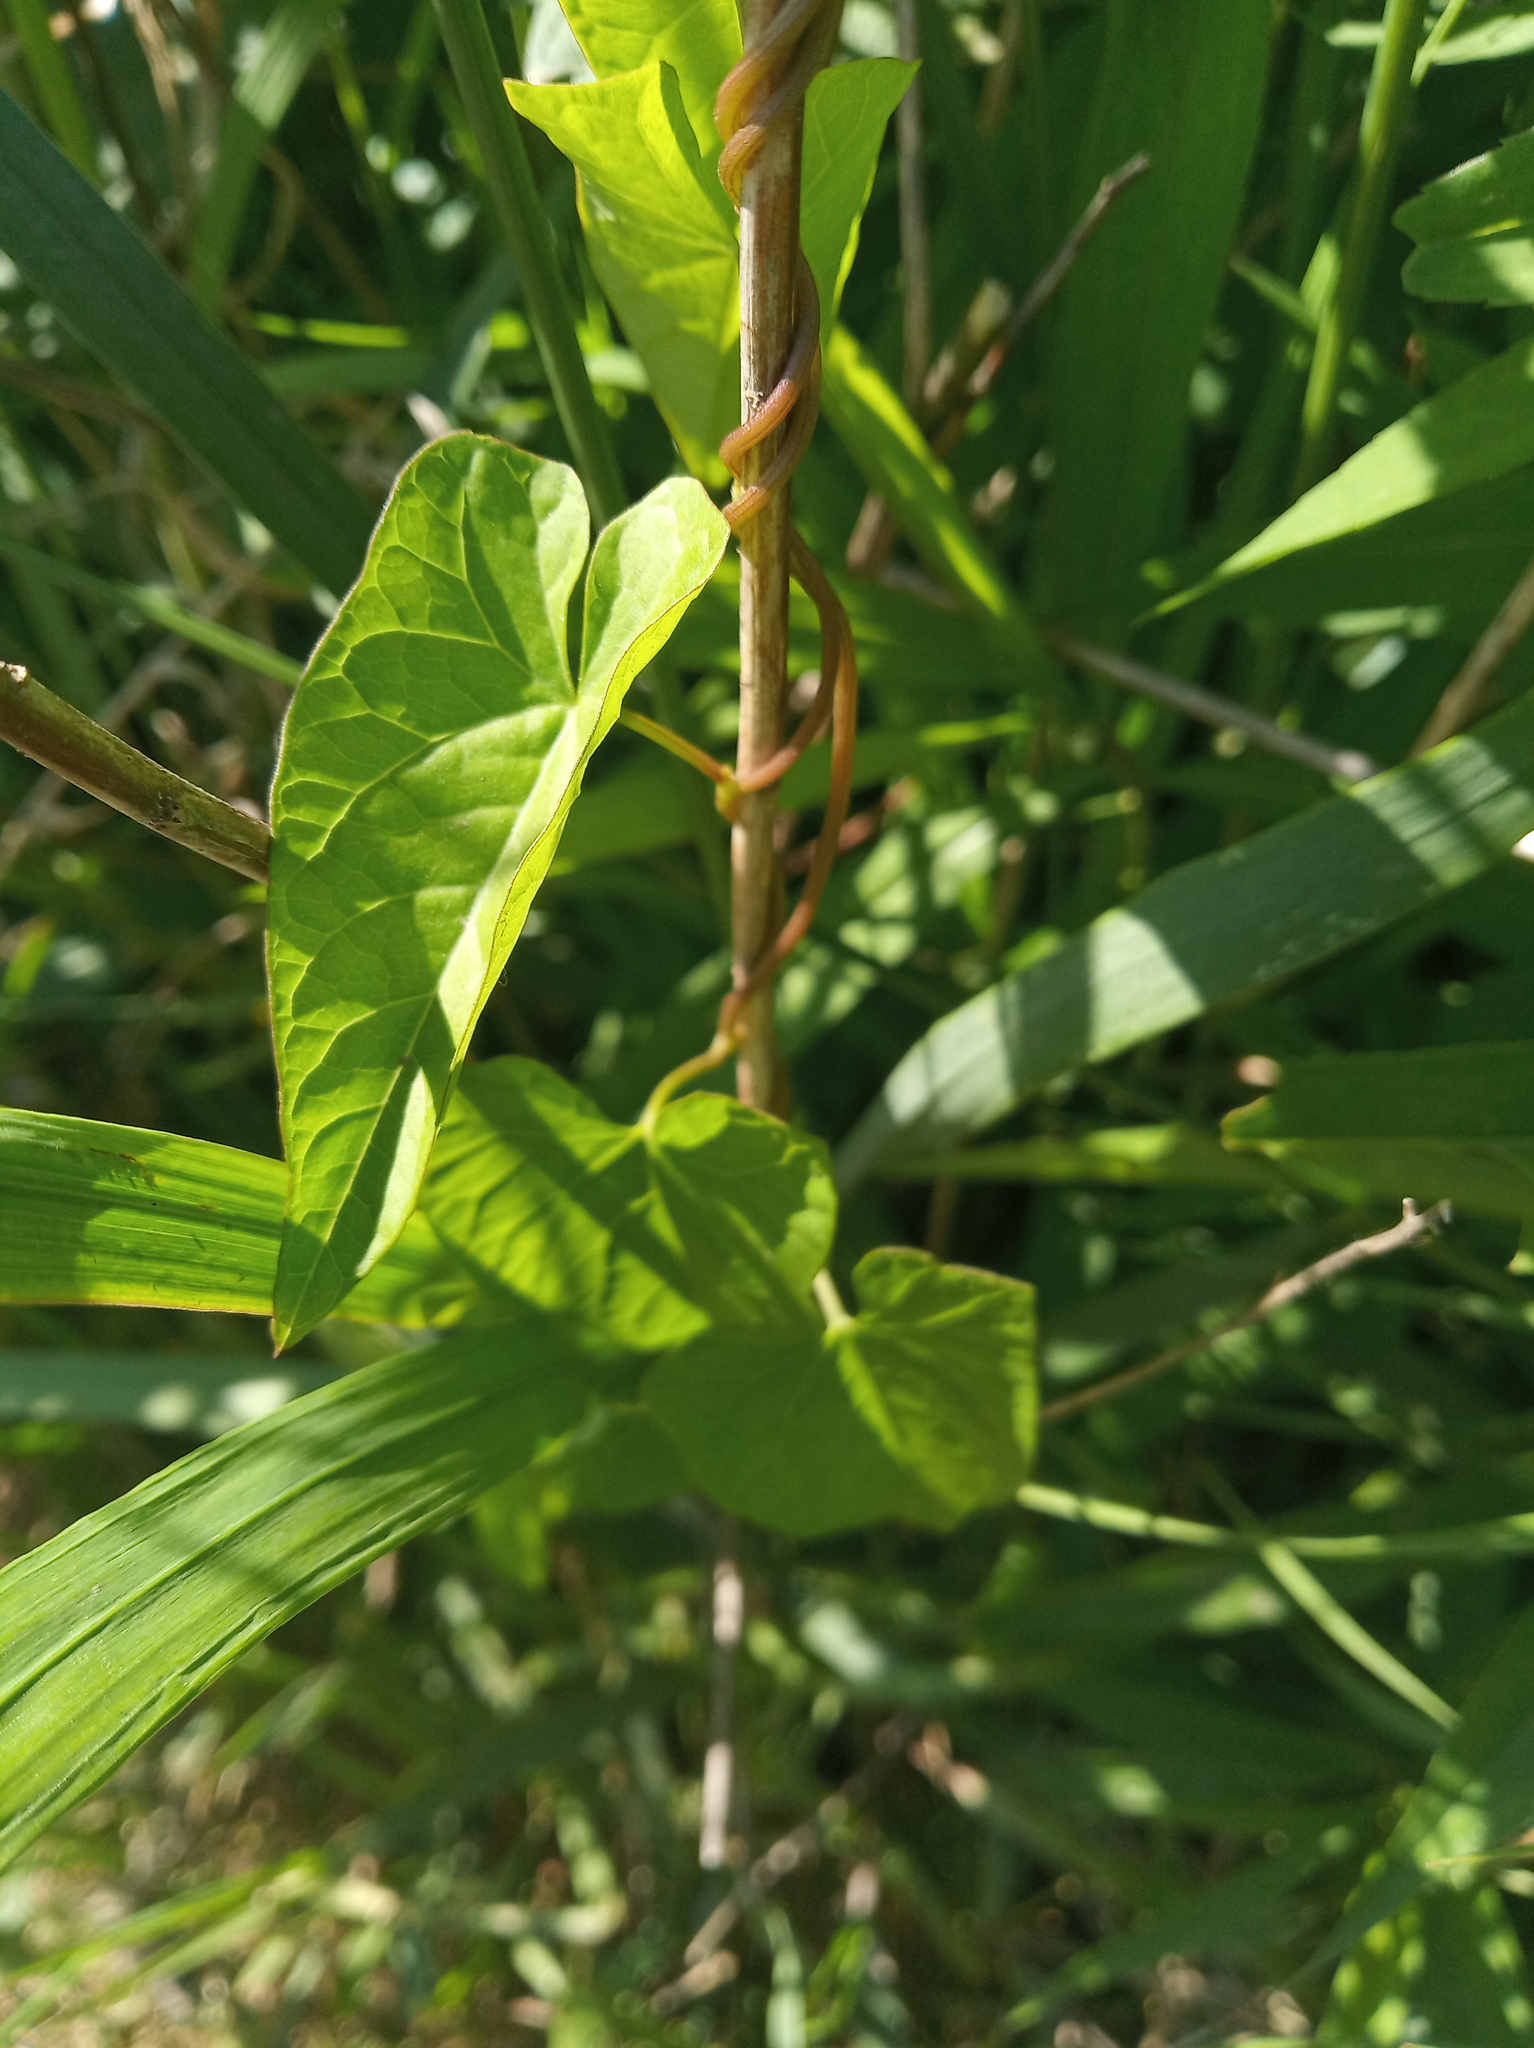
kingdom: Plantae
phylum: Tracheophyta
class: Magnoliopsida
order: Solanales
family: Convolvulaceae
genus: Calystegia
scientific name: Calystegia
